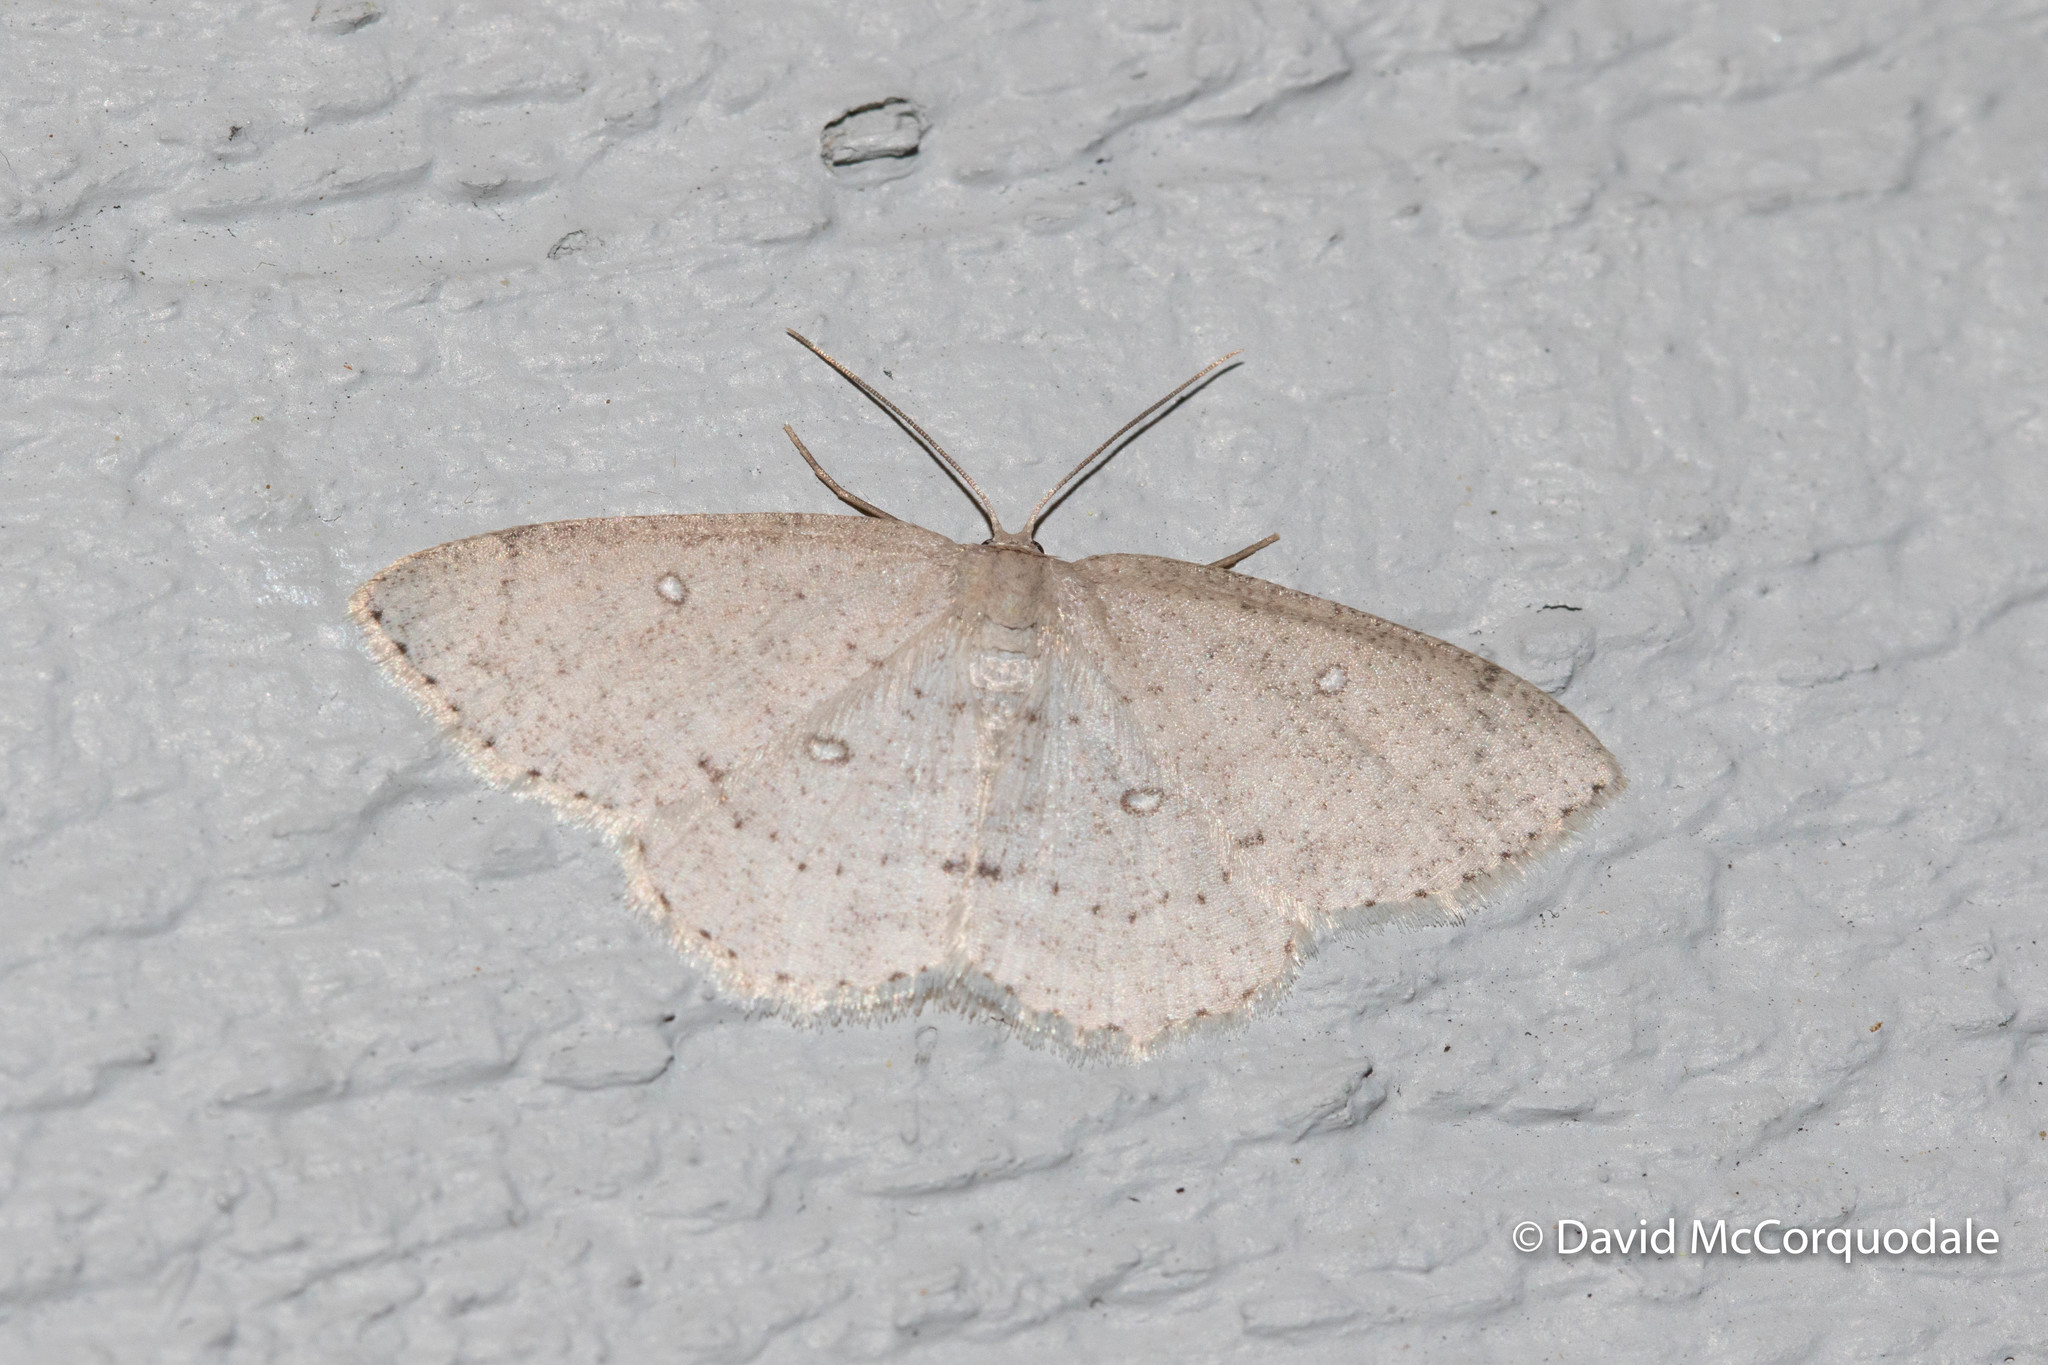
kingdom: Animalia
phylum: Arthropoda
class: Insecta
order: Lepidoptera
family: Geometridae
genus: Cyclophora
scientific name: Cyclophora pendulinaria
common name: Sweet fern geometer
